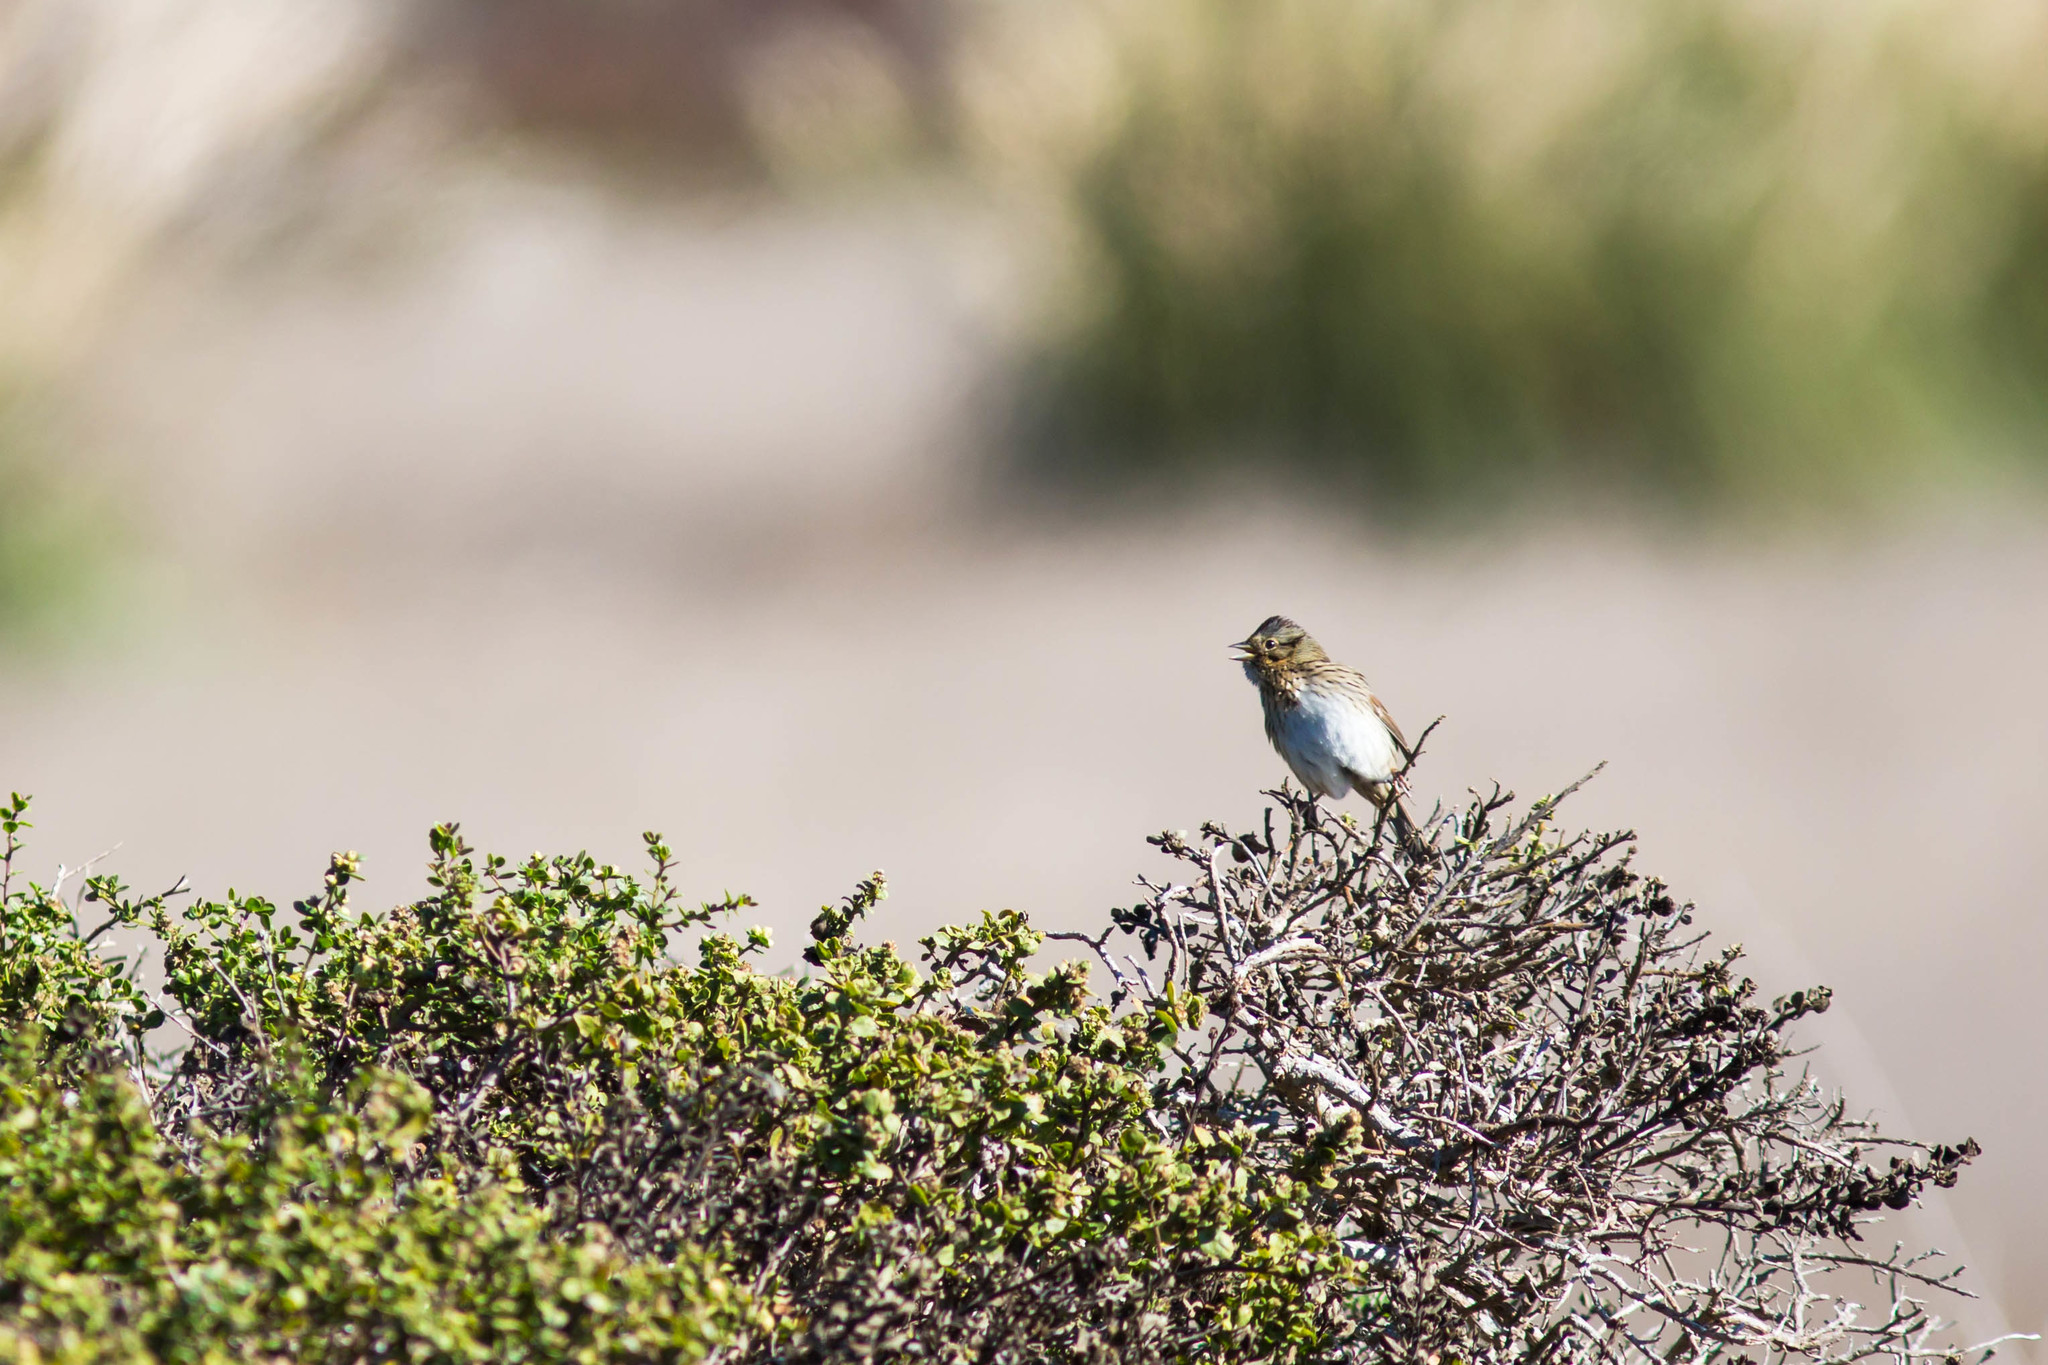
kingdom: Animalia
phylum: Chordata
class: Aves
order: Passeriformes
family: Passerellidae
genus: Melospiza
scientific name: Melospiza lincolnii
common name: Lincoln's sparrow
